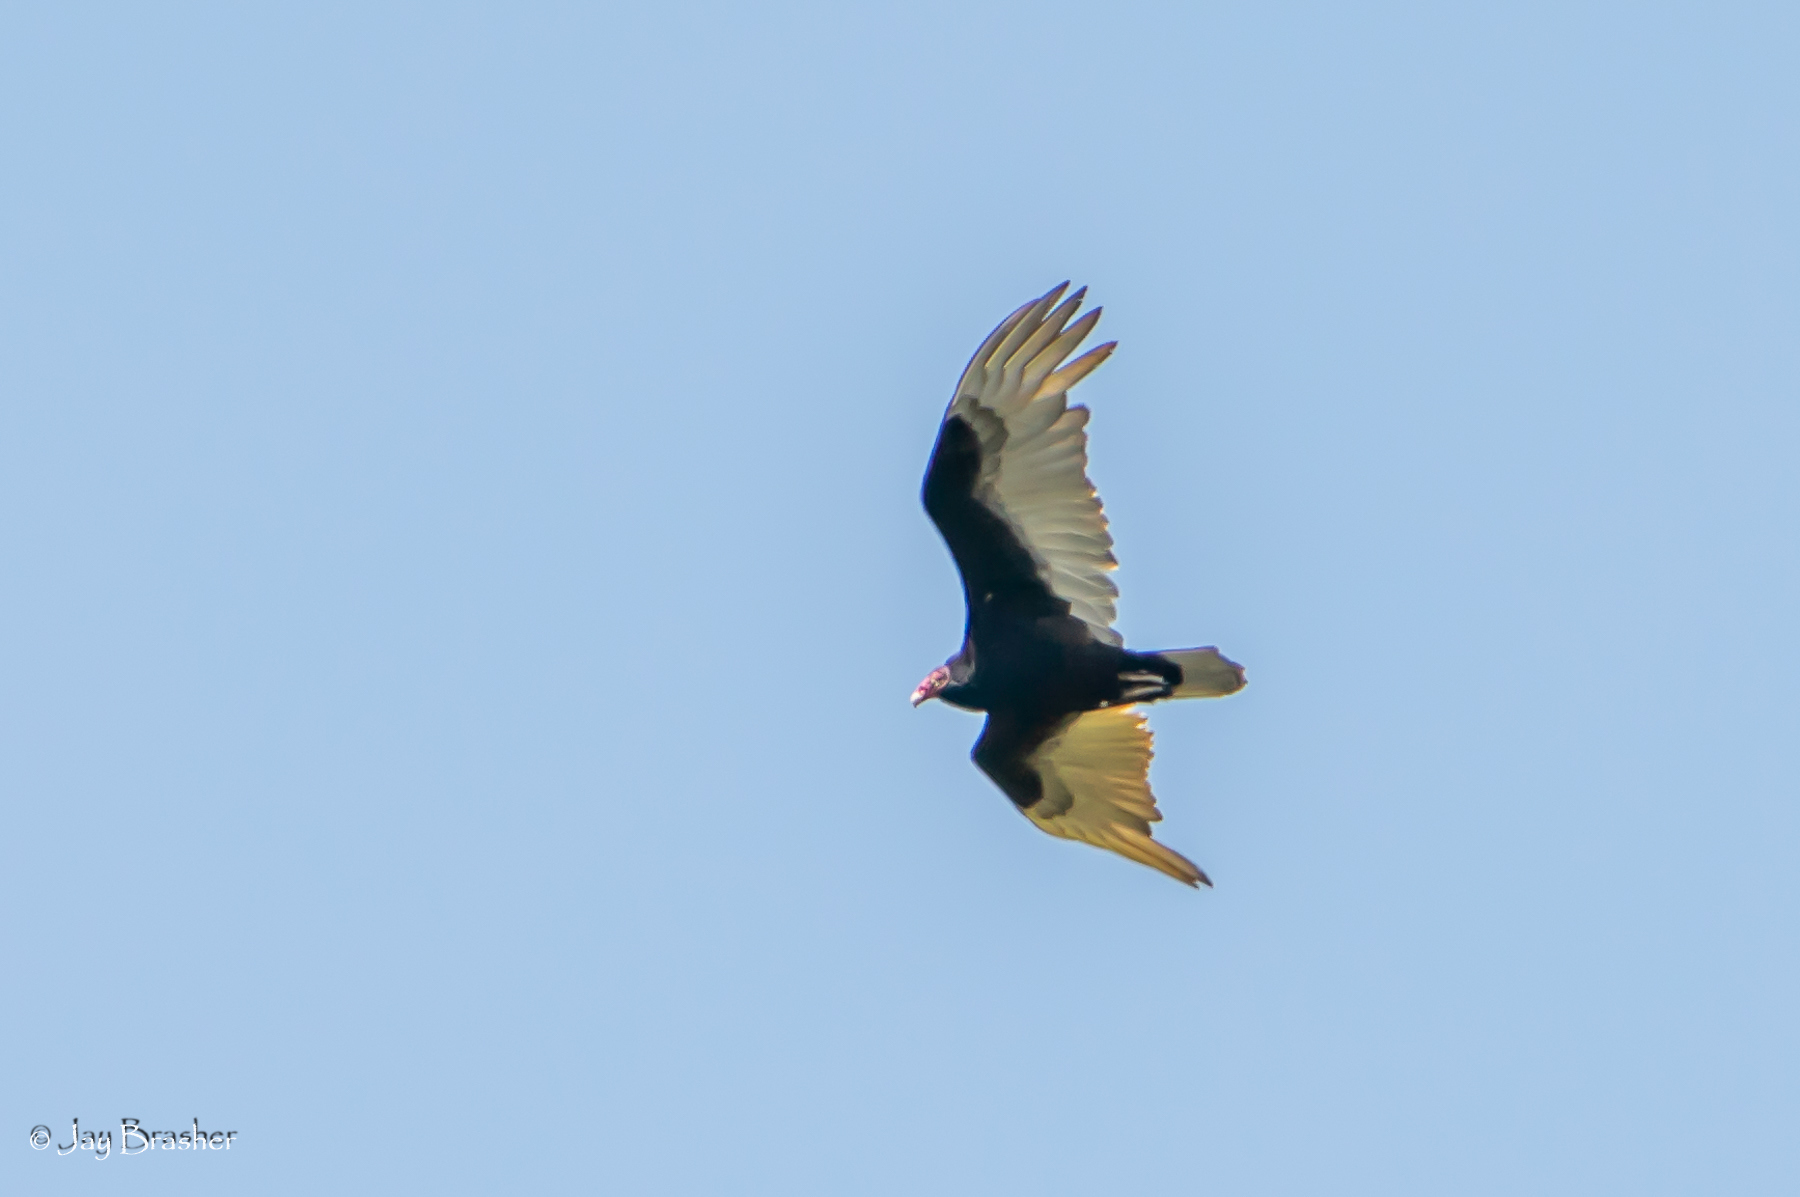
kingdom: Animalia
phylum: Chordata
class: Aves
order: Accipitriformes
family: Cathartidae
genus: Cathartes
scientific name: Cathartes aura
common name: Turkey vulture
